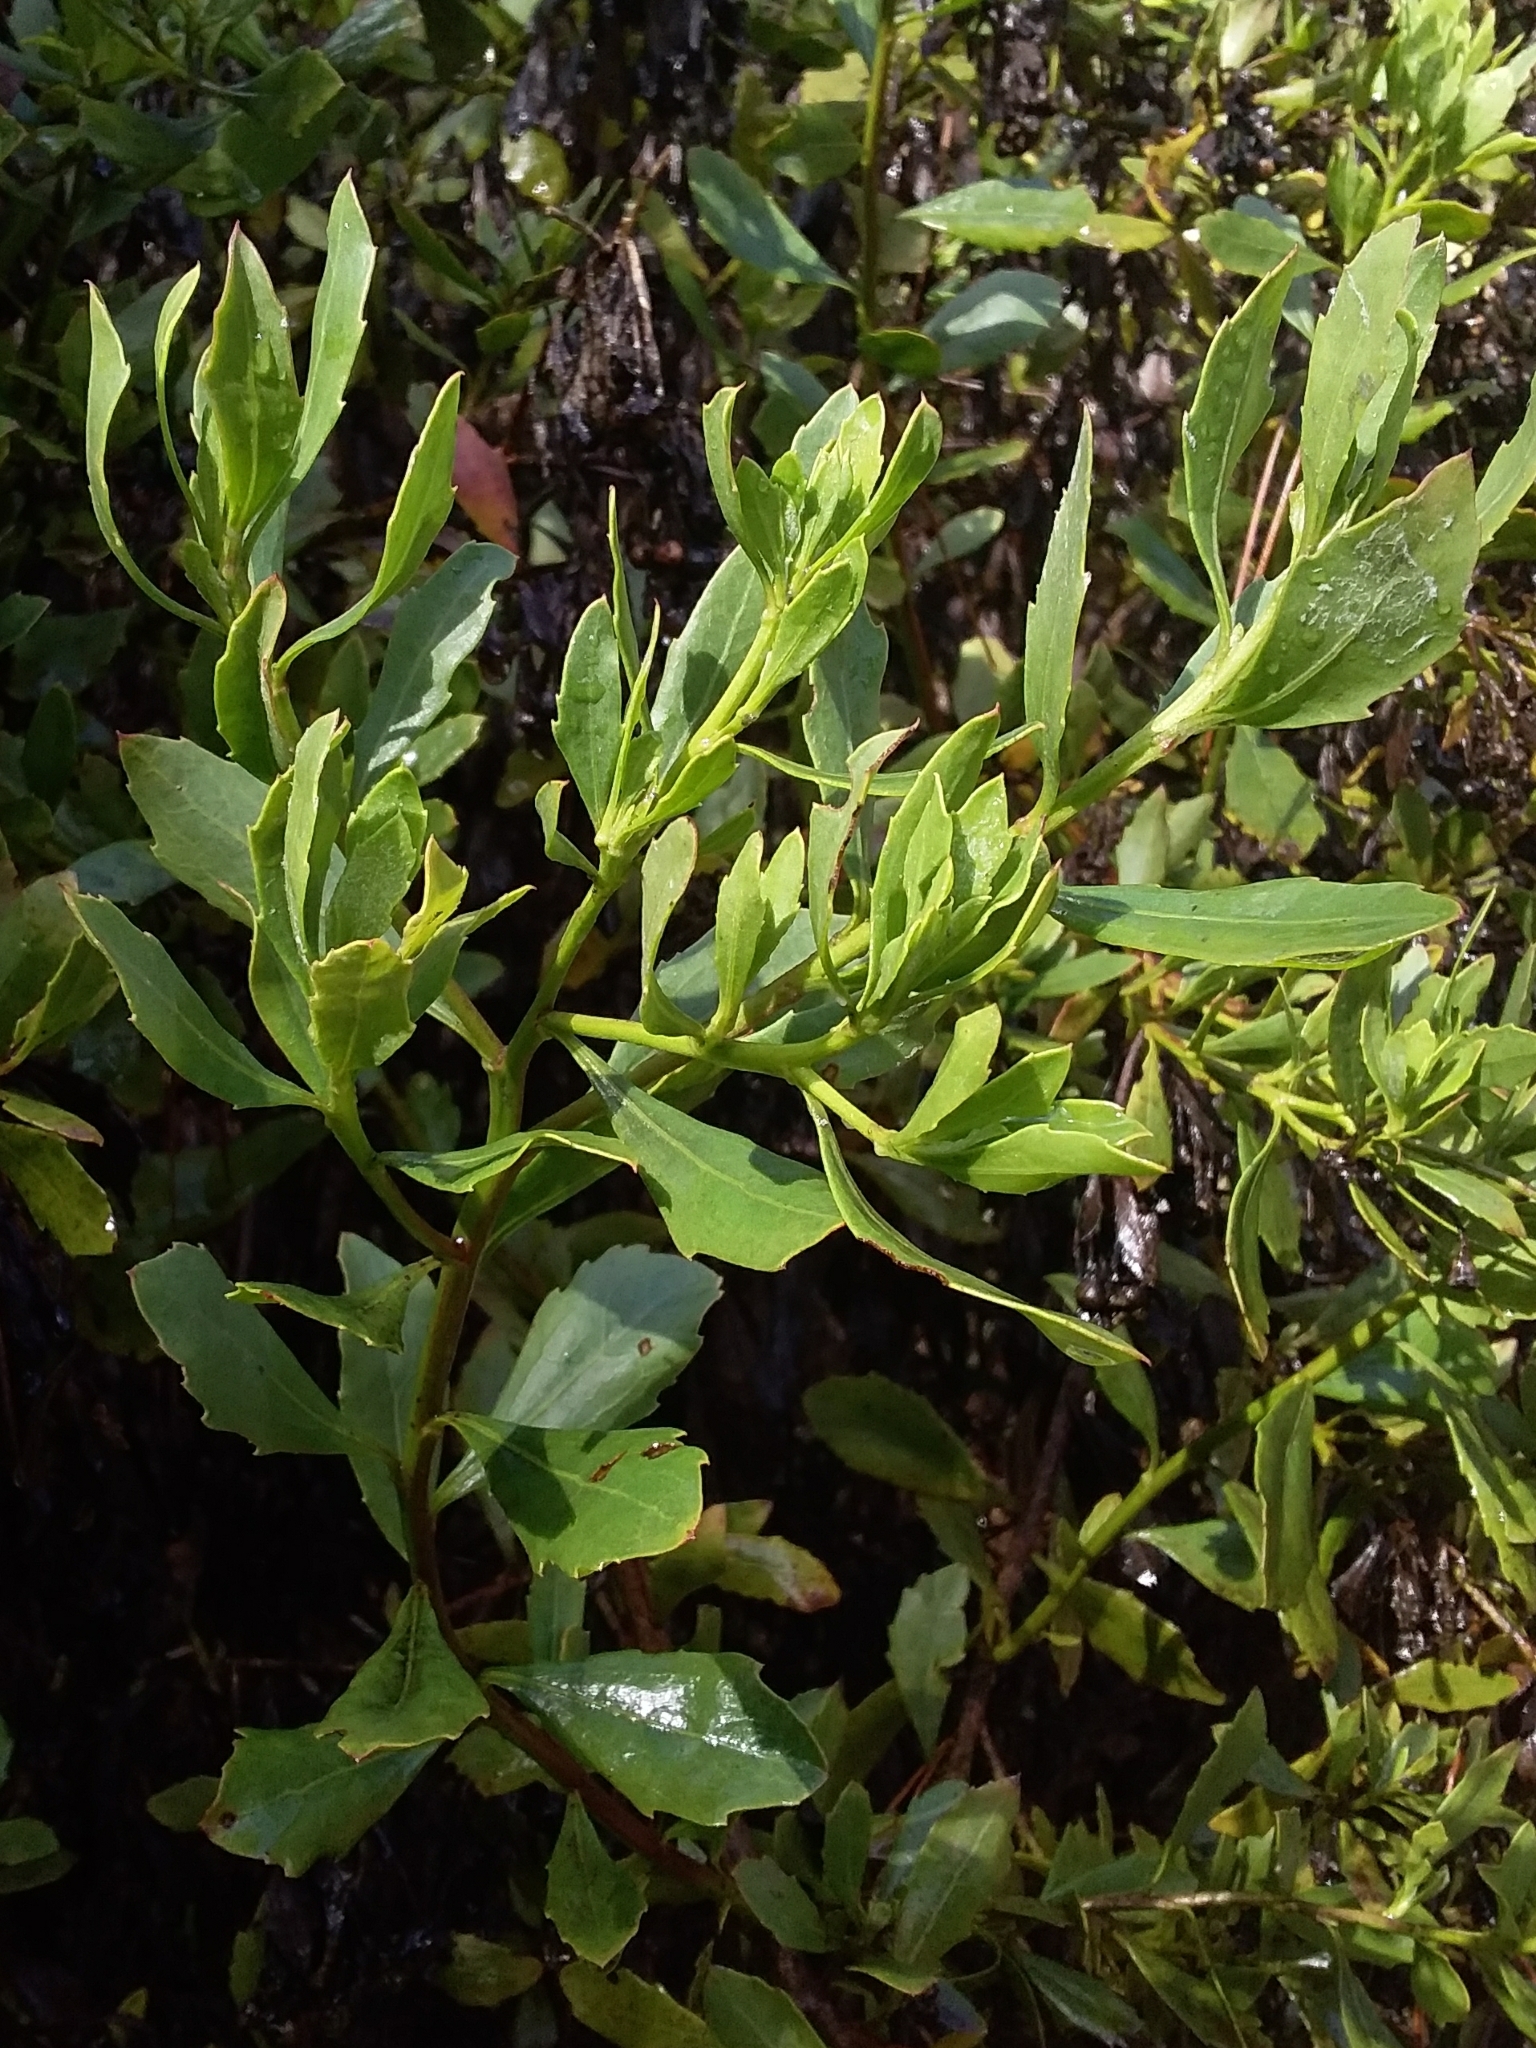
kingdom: Plantae
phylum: Tracheophyta
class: Magnoliopsida
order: Asterales
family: Asteraceae
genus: Osteospermum
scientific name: Osteospermum moniliferum
